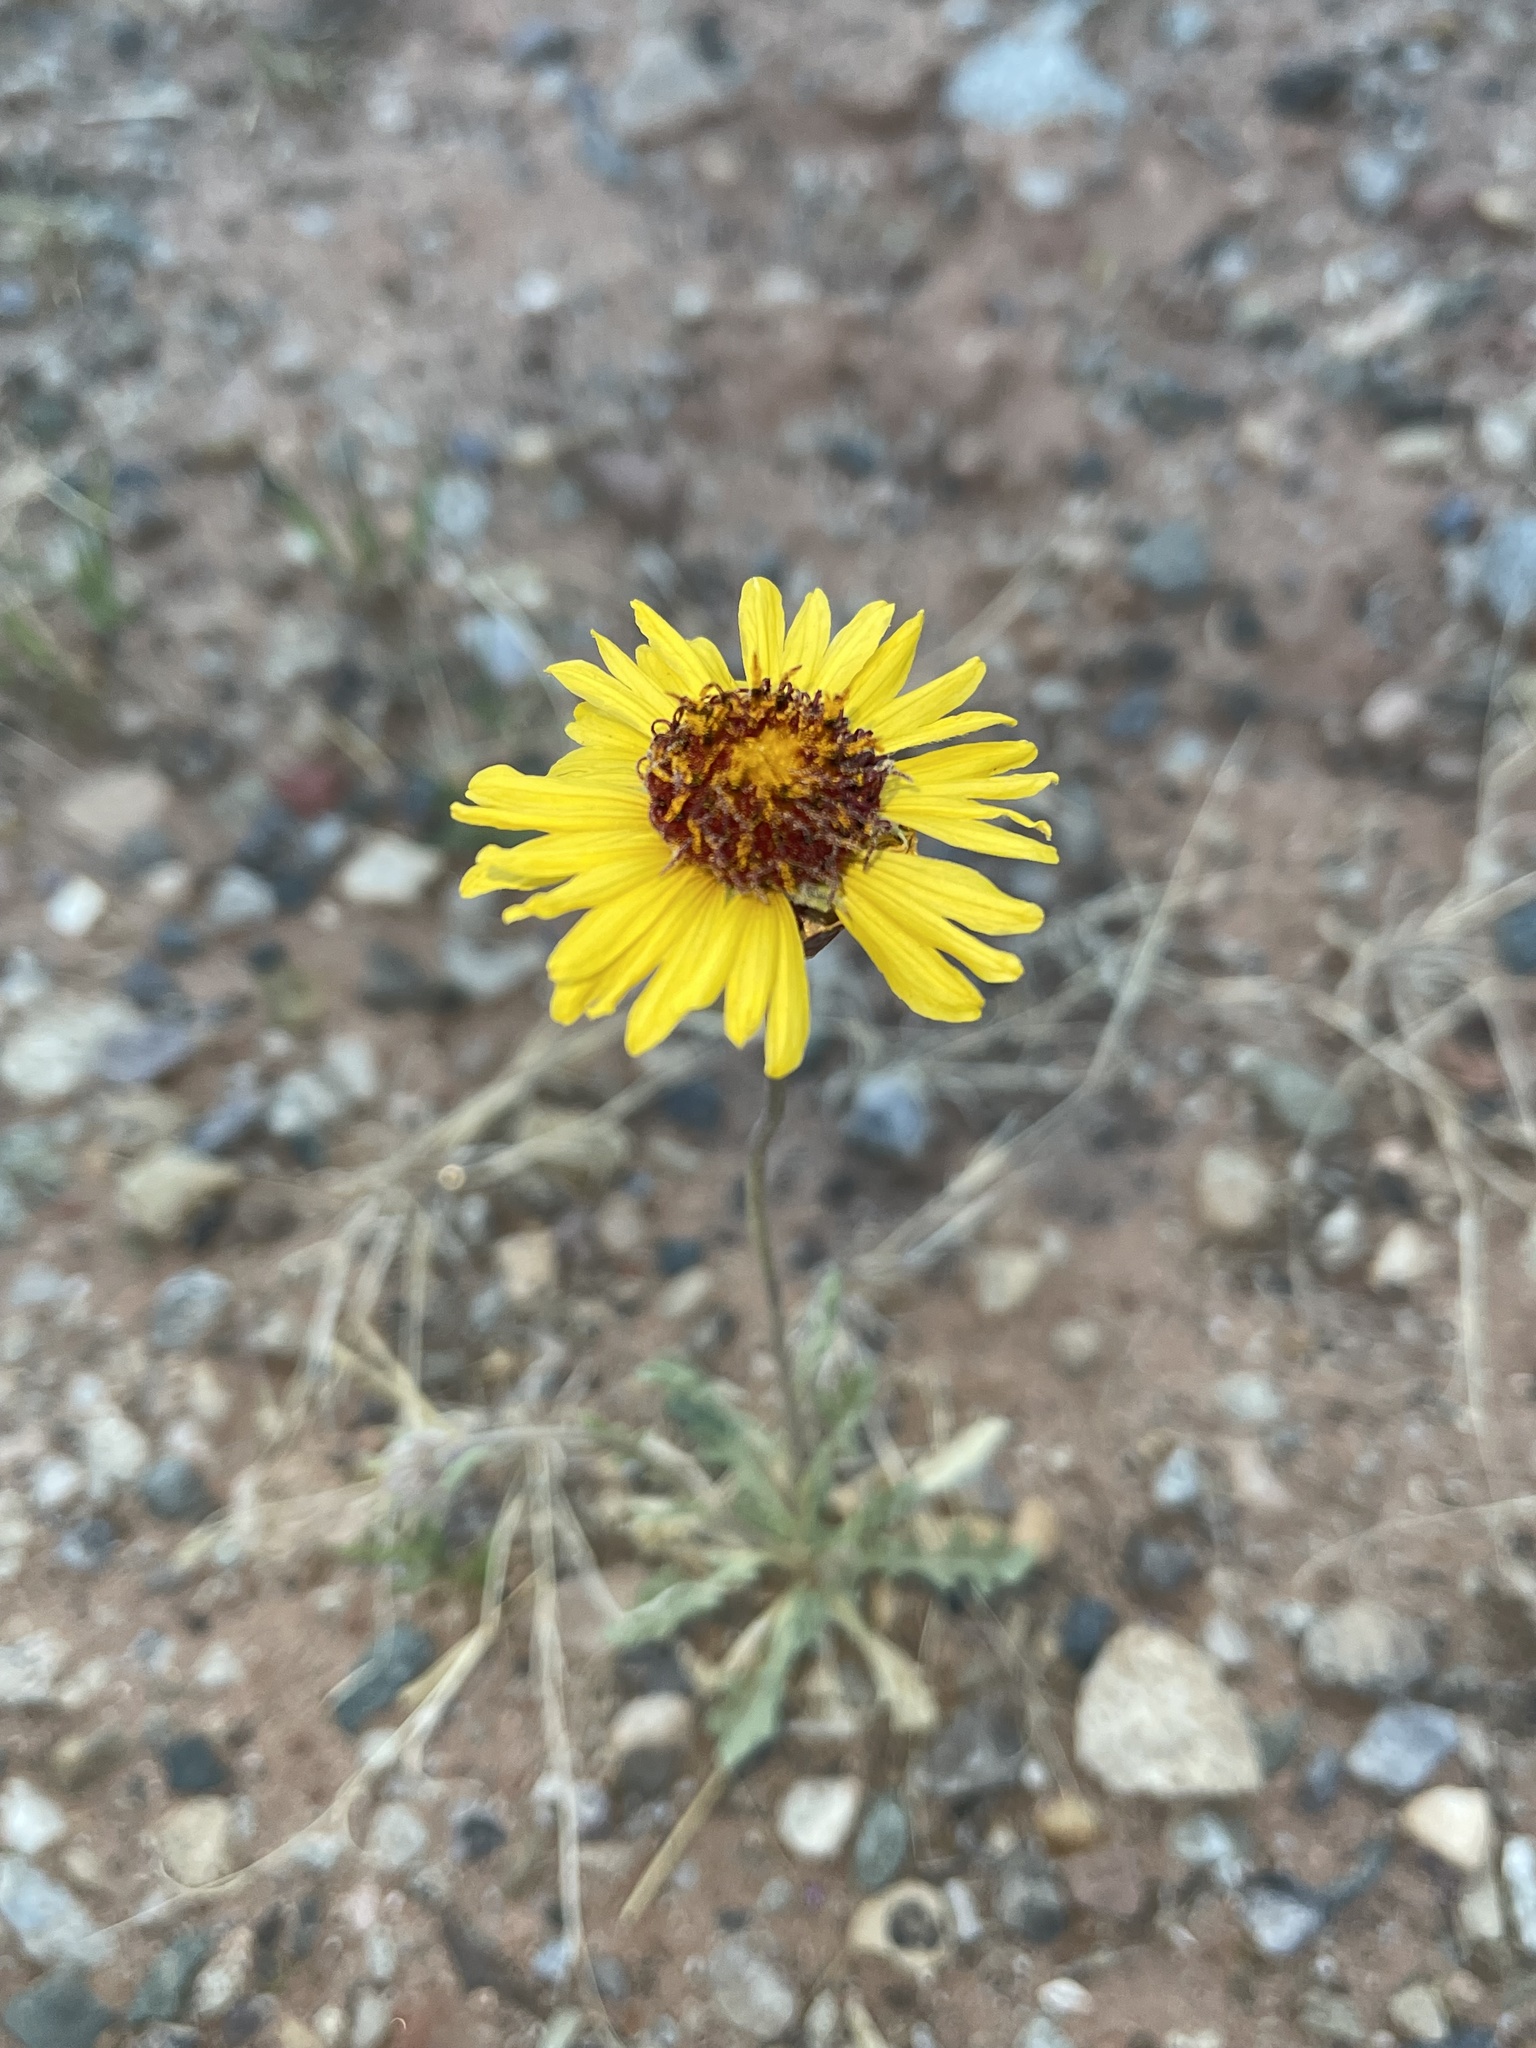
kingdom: Plantae
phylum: Tracheophyta
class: Magnoliopsida
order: Asterales
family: Asteraceae
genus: Gaillardia
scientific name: Gaillardia pinnatifida
